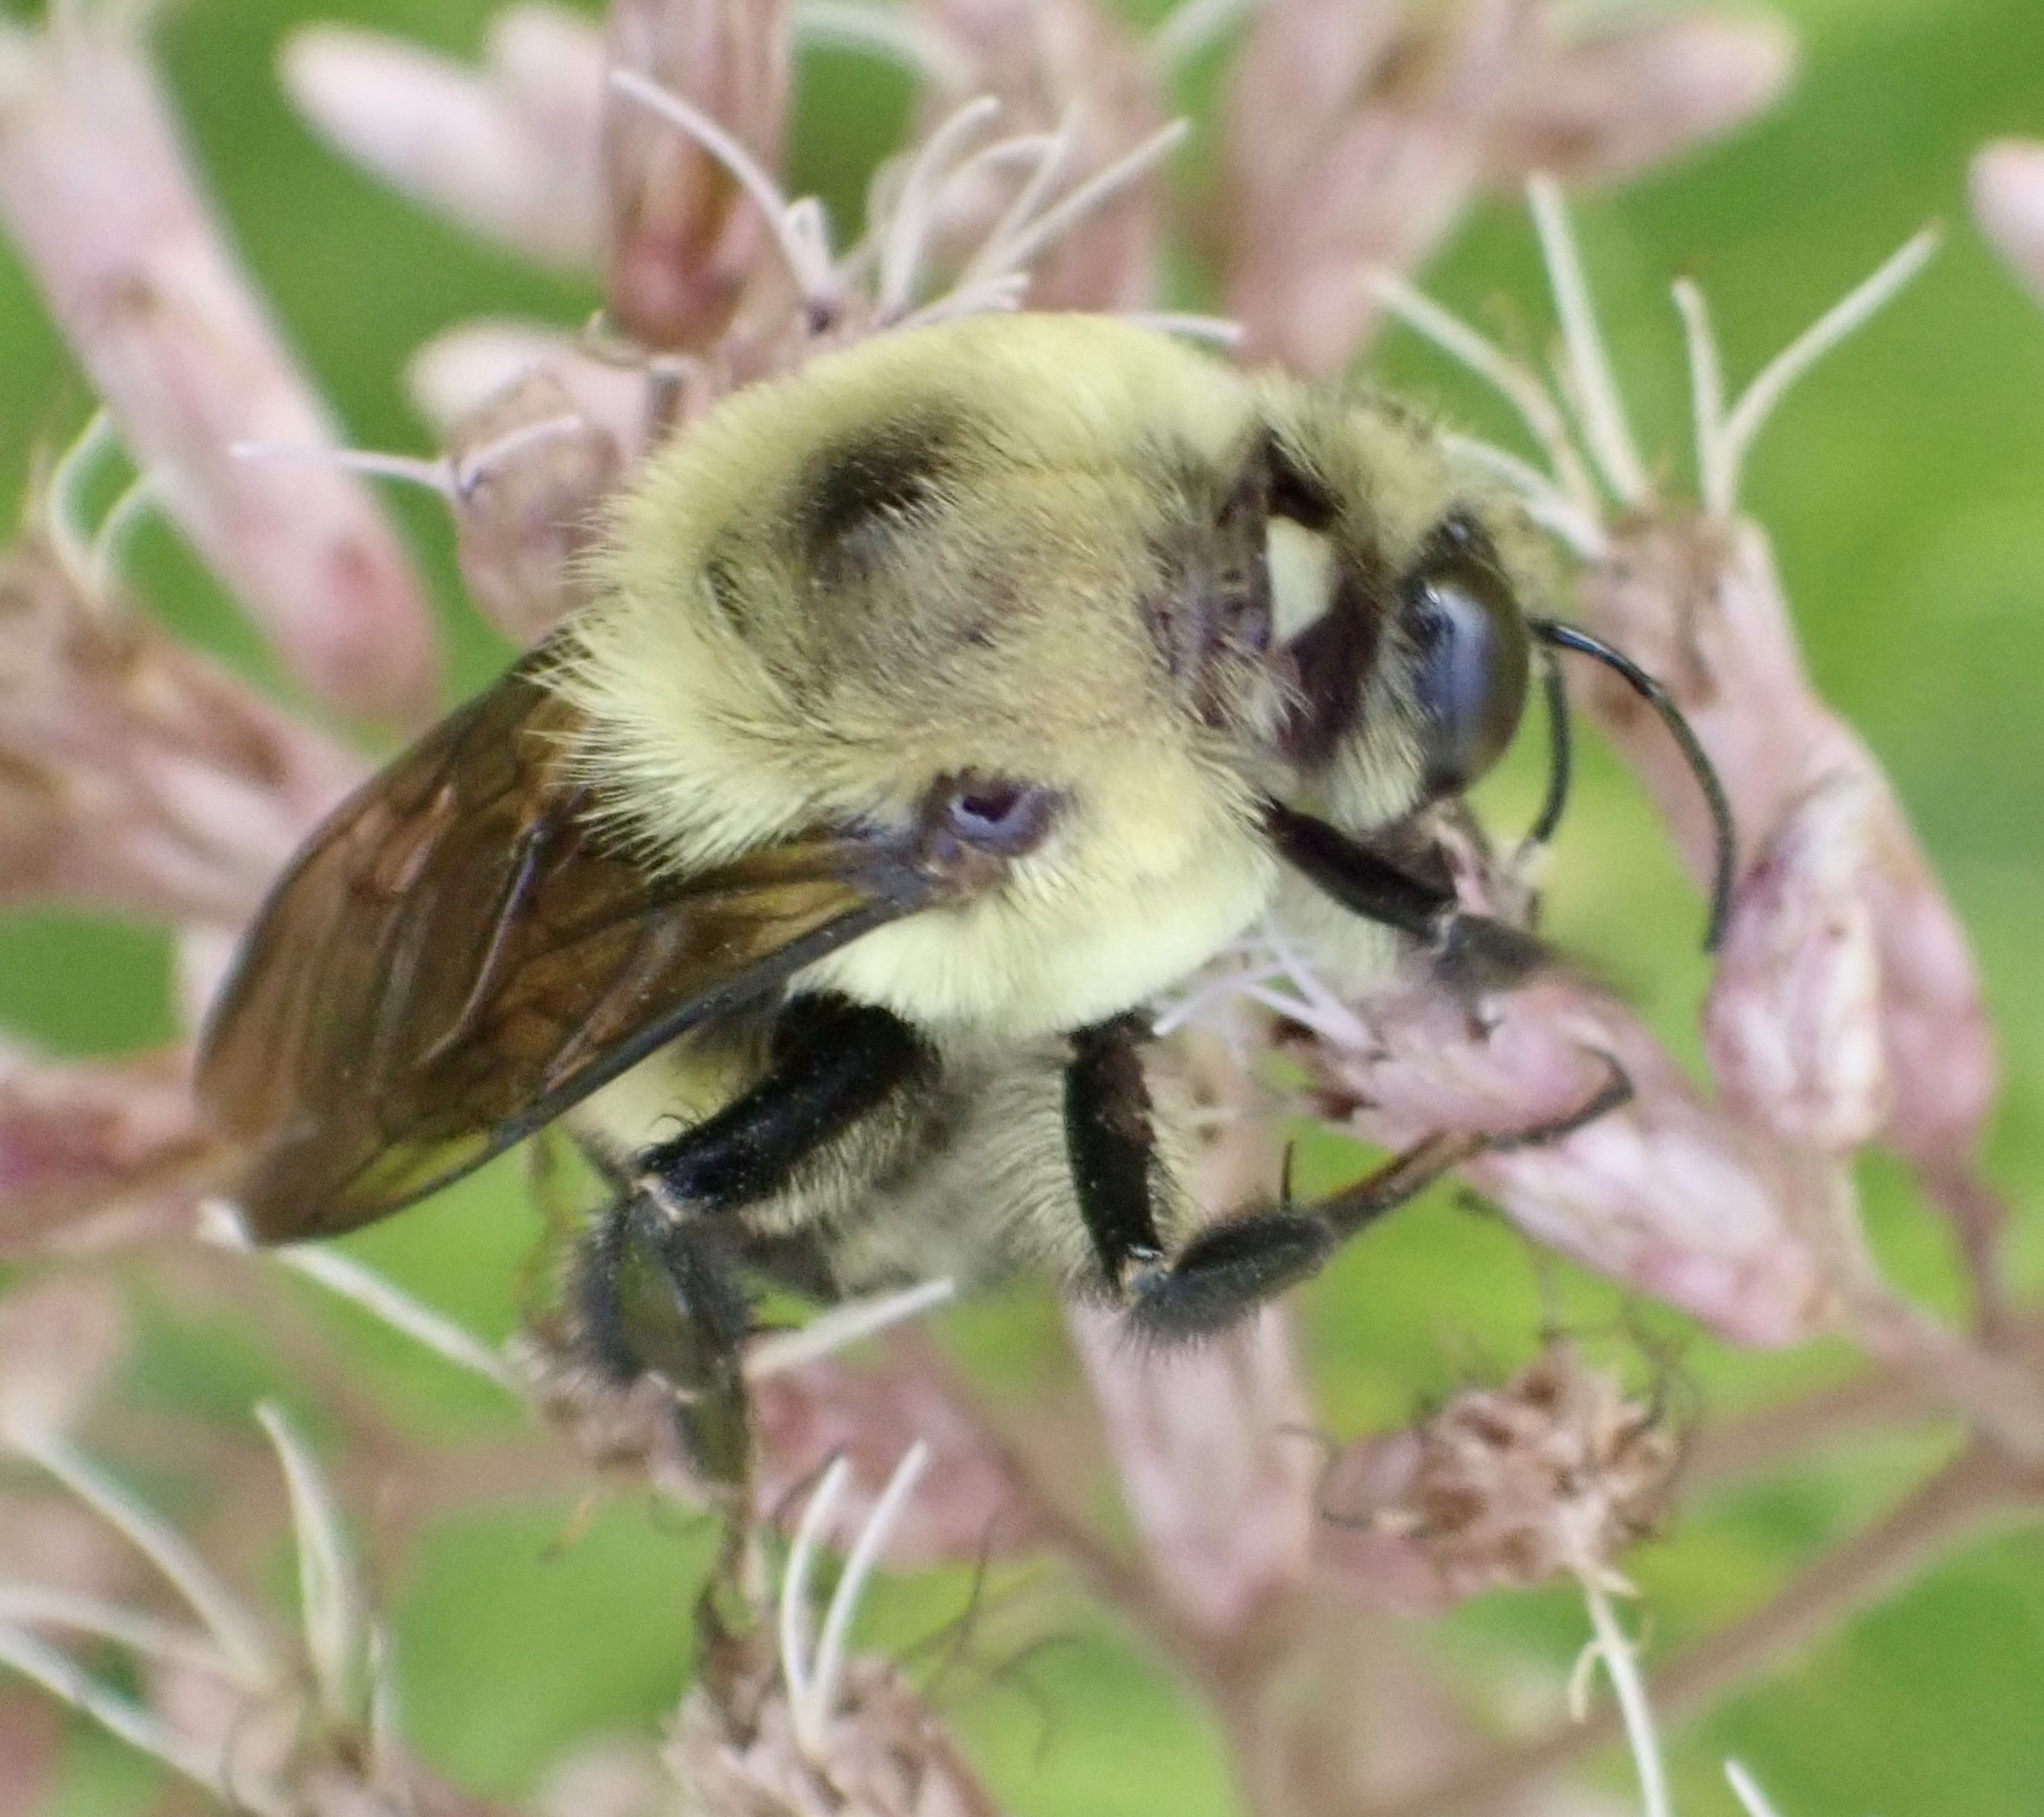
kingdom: Animalia
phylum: Arthropoda
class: Insecta
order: Hymenoptera
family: Apidae
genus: Bombus
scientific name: Bombus griseocollis
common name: Brown-belted bumble bee
